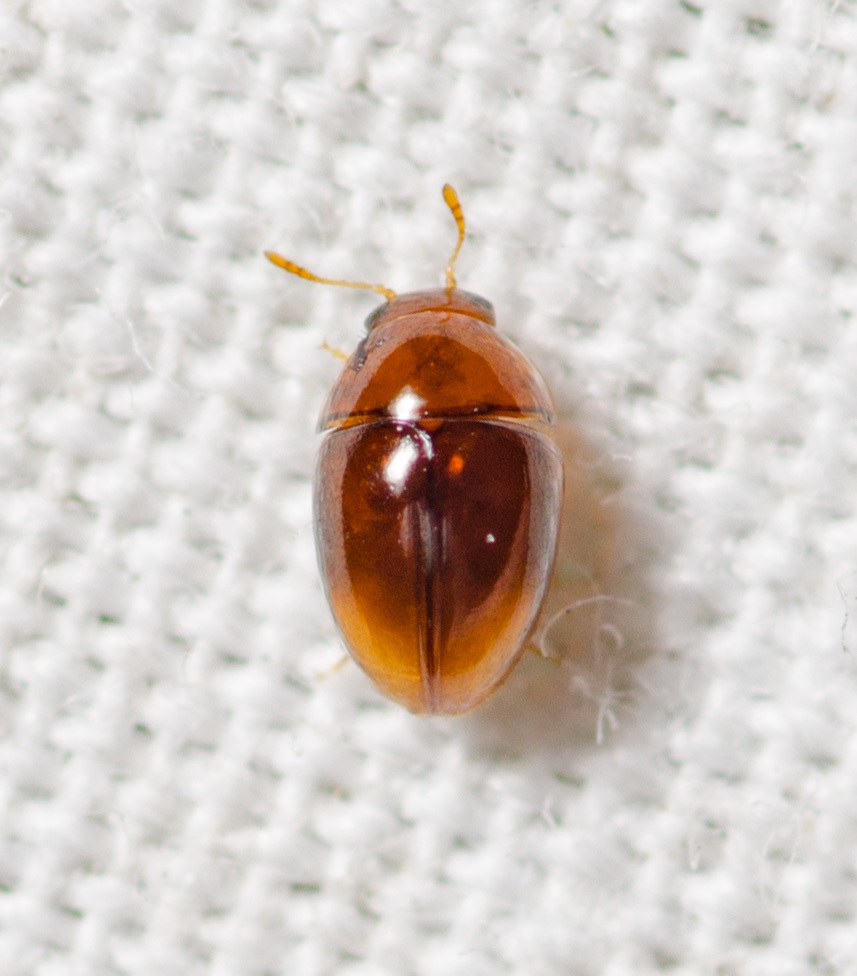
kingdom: Animalia
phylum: Arthropoda
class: Insecta
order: Coleoptera
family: Phalacridae
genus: Phalacrus
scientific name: Phalacrus apicalis
